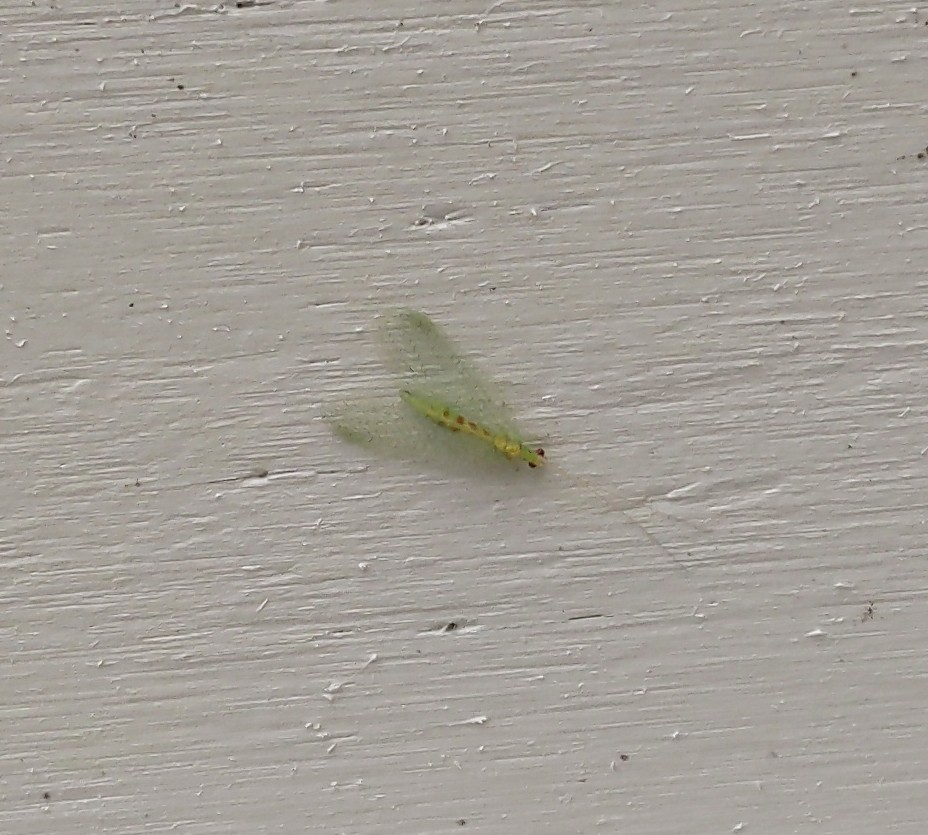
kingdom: Animalia
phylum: Arthropoda
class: Insecta
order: Neuroptera
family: Chrysopidae
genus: Chrysopa
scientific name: Chrysopa quadripunctata
